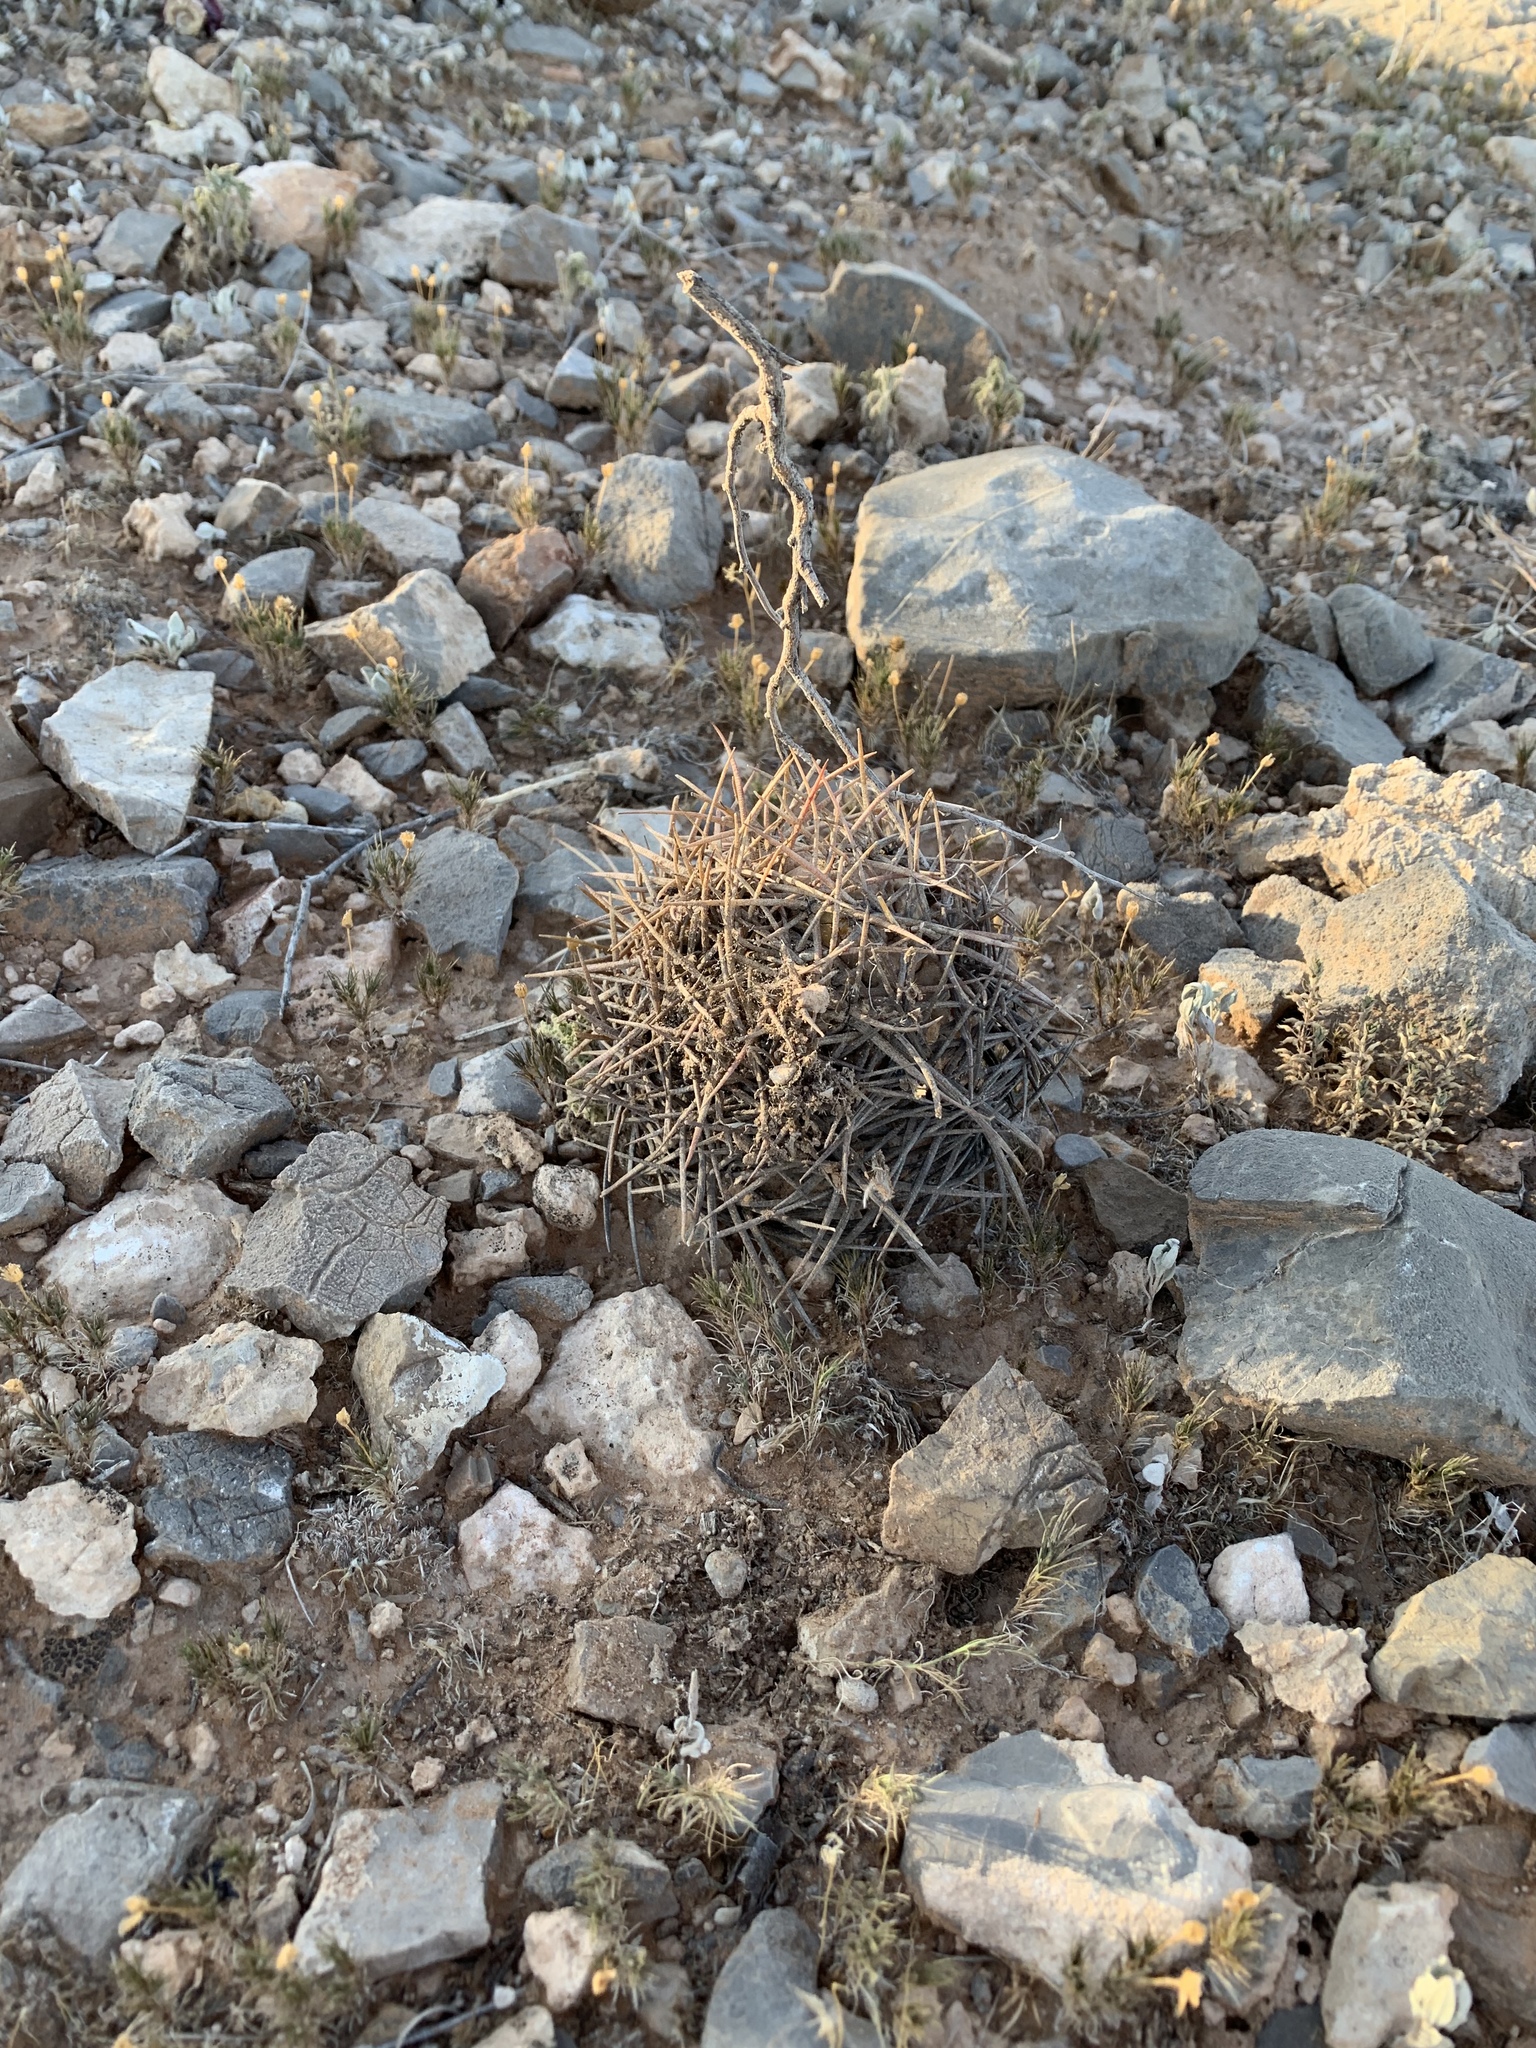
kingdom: Plantae
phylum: Tracheophyta
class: Magnoliopsida
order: Caryophyllales
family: Cactaceae
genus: Echinocactus
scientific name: Echinocactus horizonthalonius
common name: Devilshead
